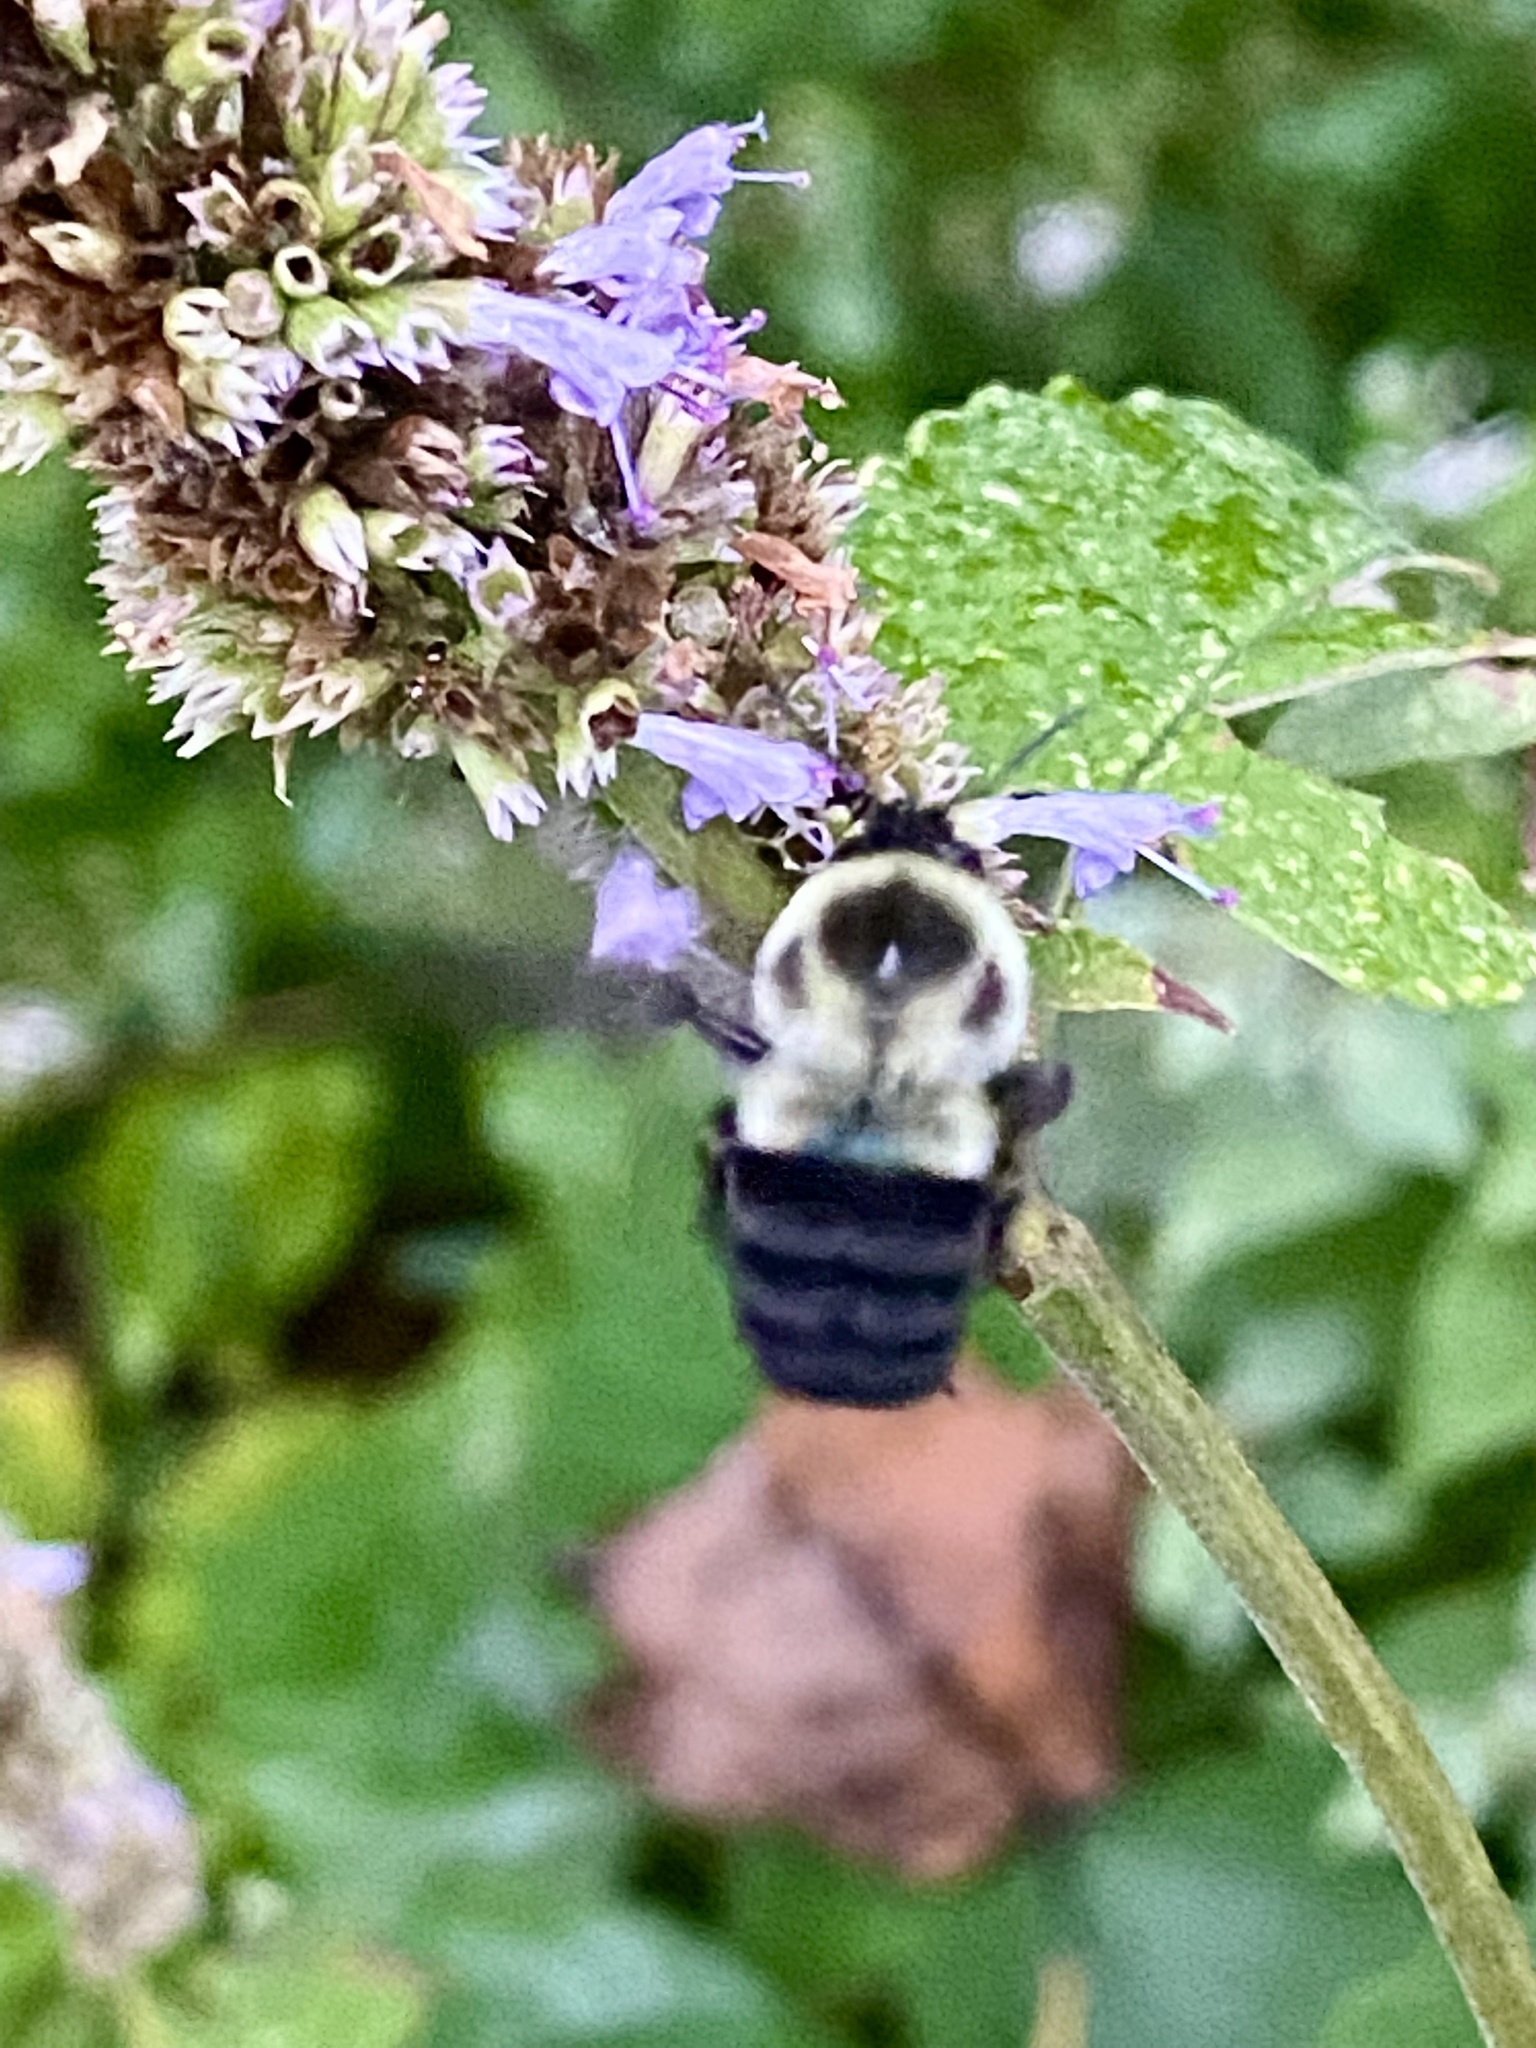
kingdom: Animalia
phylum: Arthropoda
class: Insecta
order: Hymenoptera
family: Apidae
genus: Bombus
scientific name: Bombus impatiens
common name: Common eastern bumble bee
